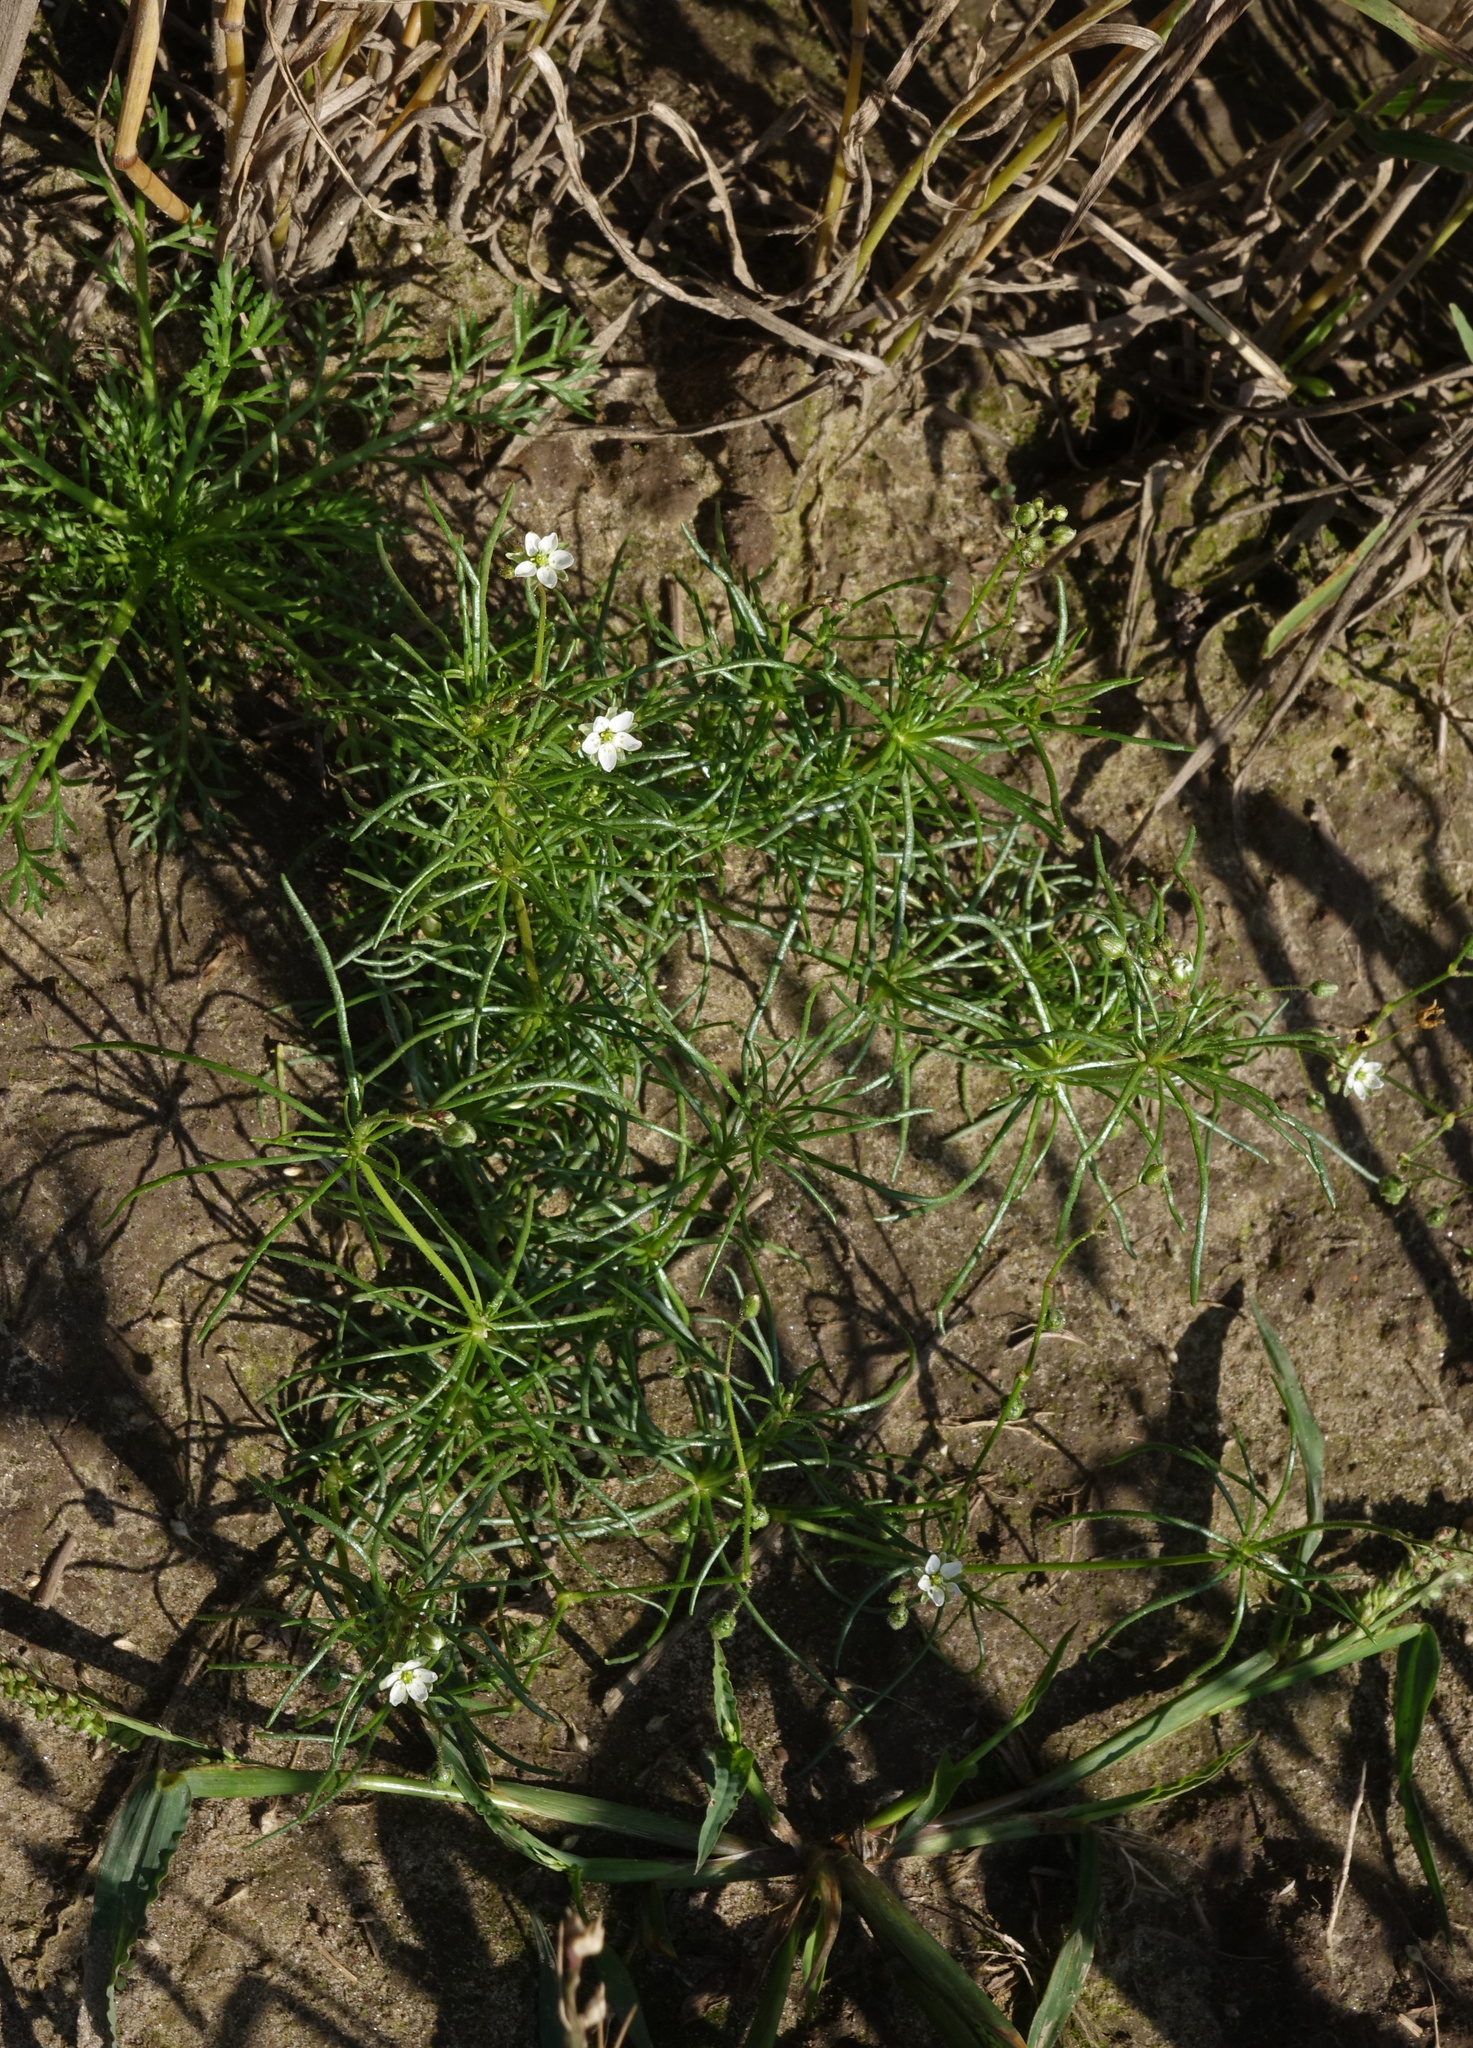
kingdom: Plantae
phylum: Tracheophyta
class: Magnoliopsida
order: Caryophyllales
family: Caryophyllaceae
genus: Spergula
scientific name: Spergula arvensis
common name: Corn spurrey
